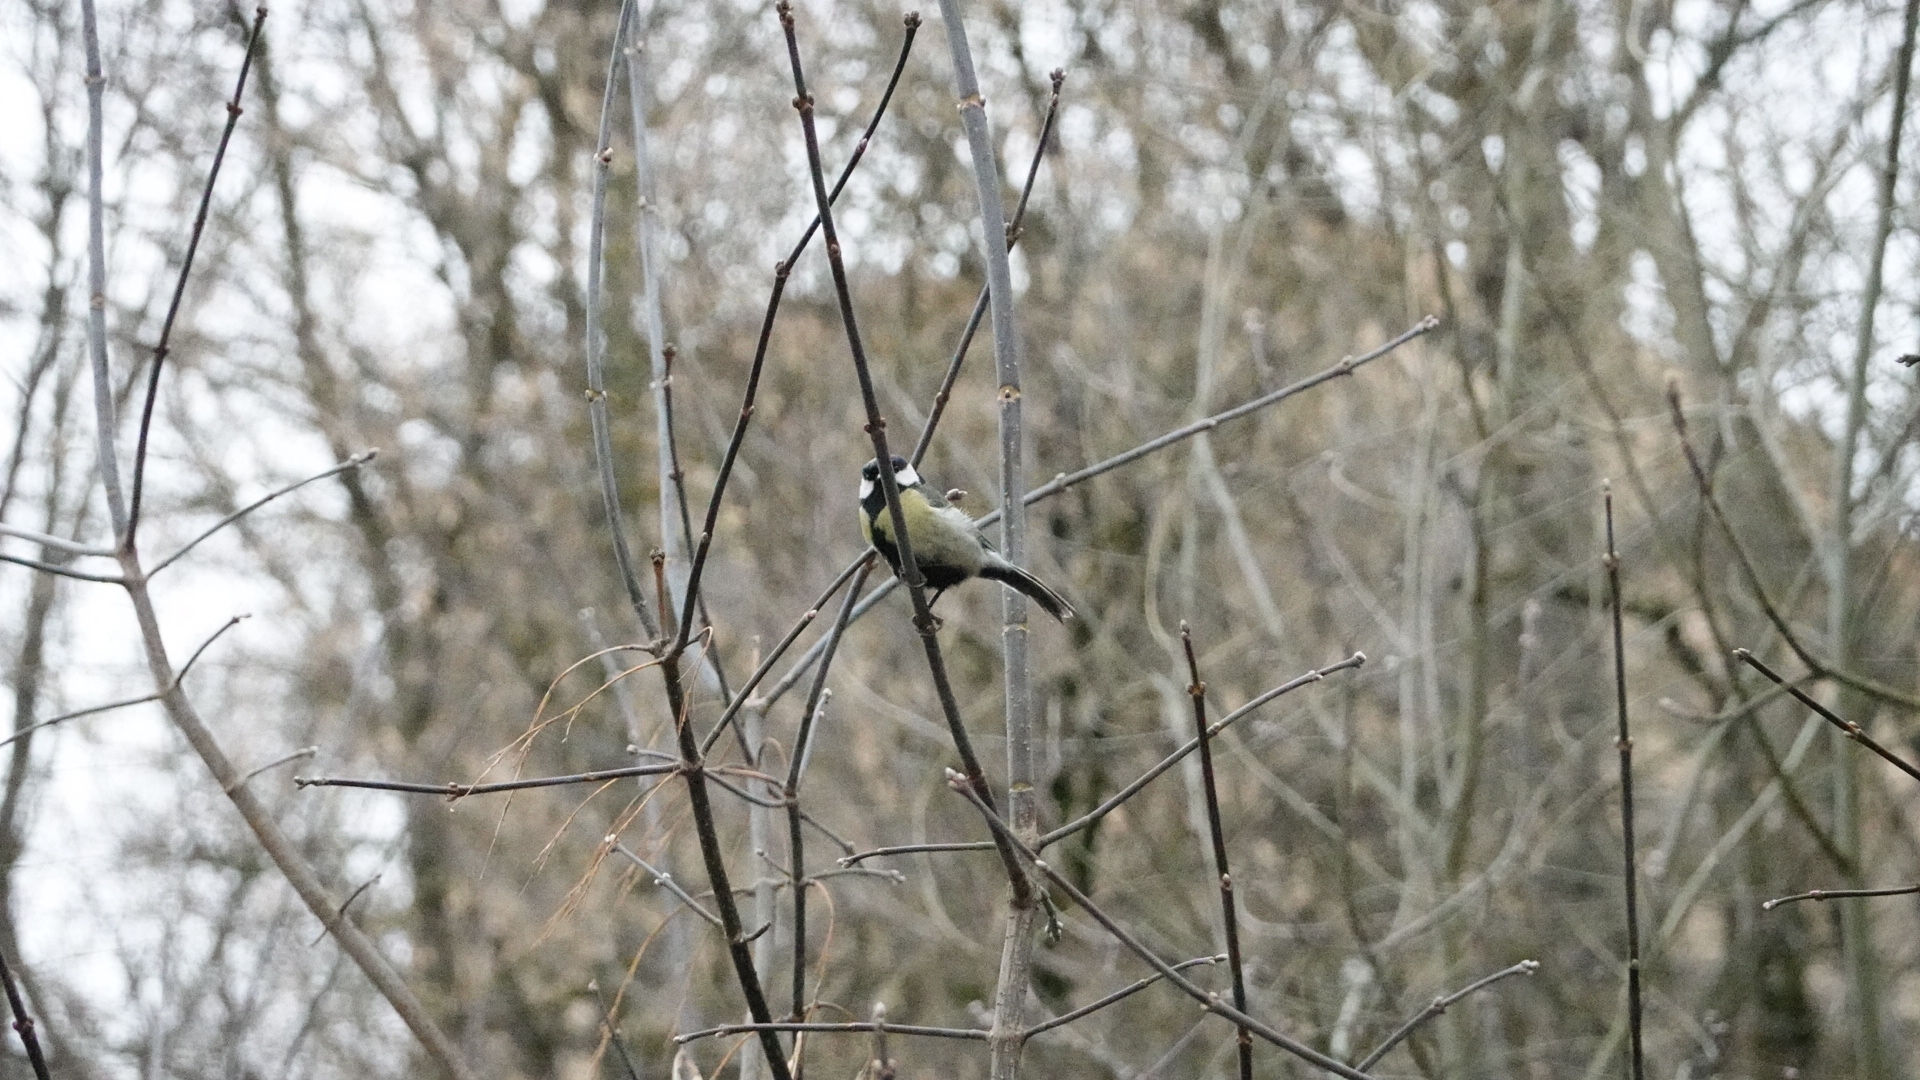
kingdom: Animalia
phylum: Chordata
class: Aves
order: Passeriformes
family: Paridae
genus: Parus
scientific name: Parus major
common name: Great tit
